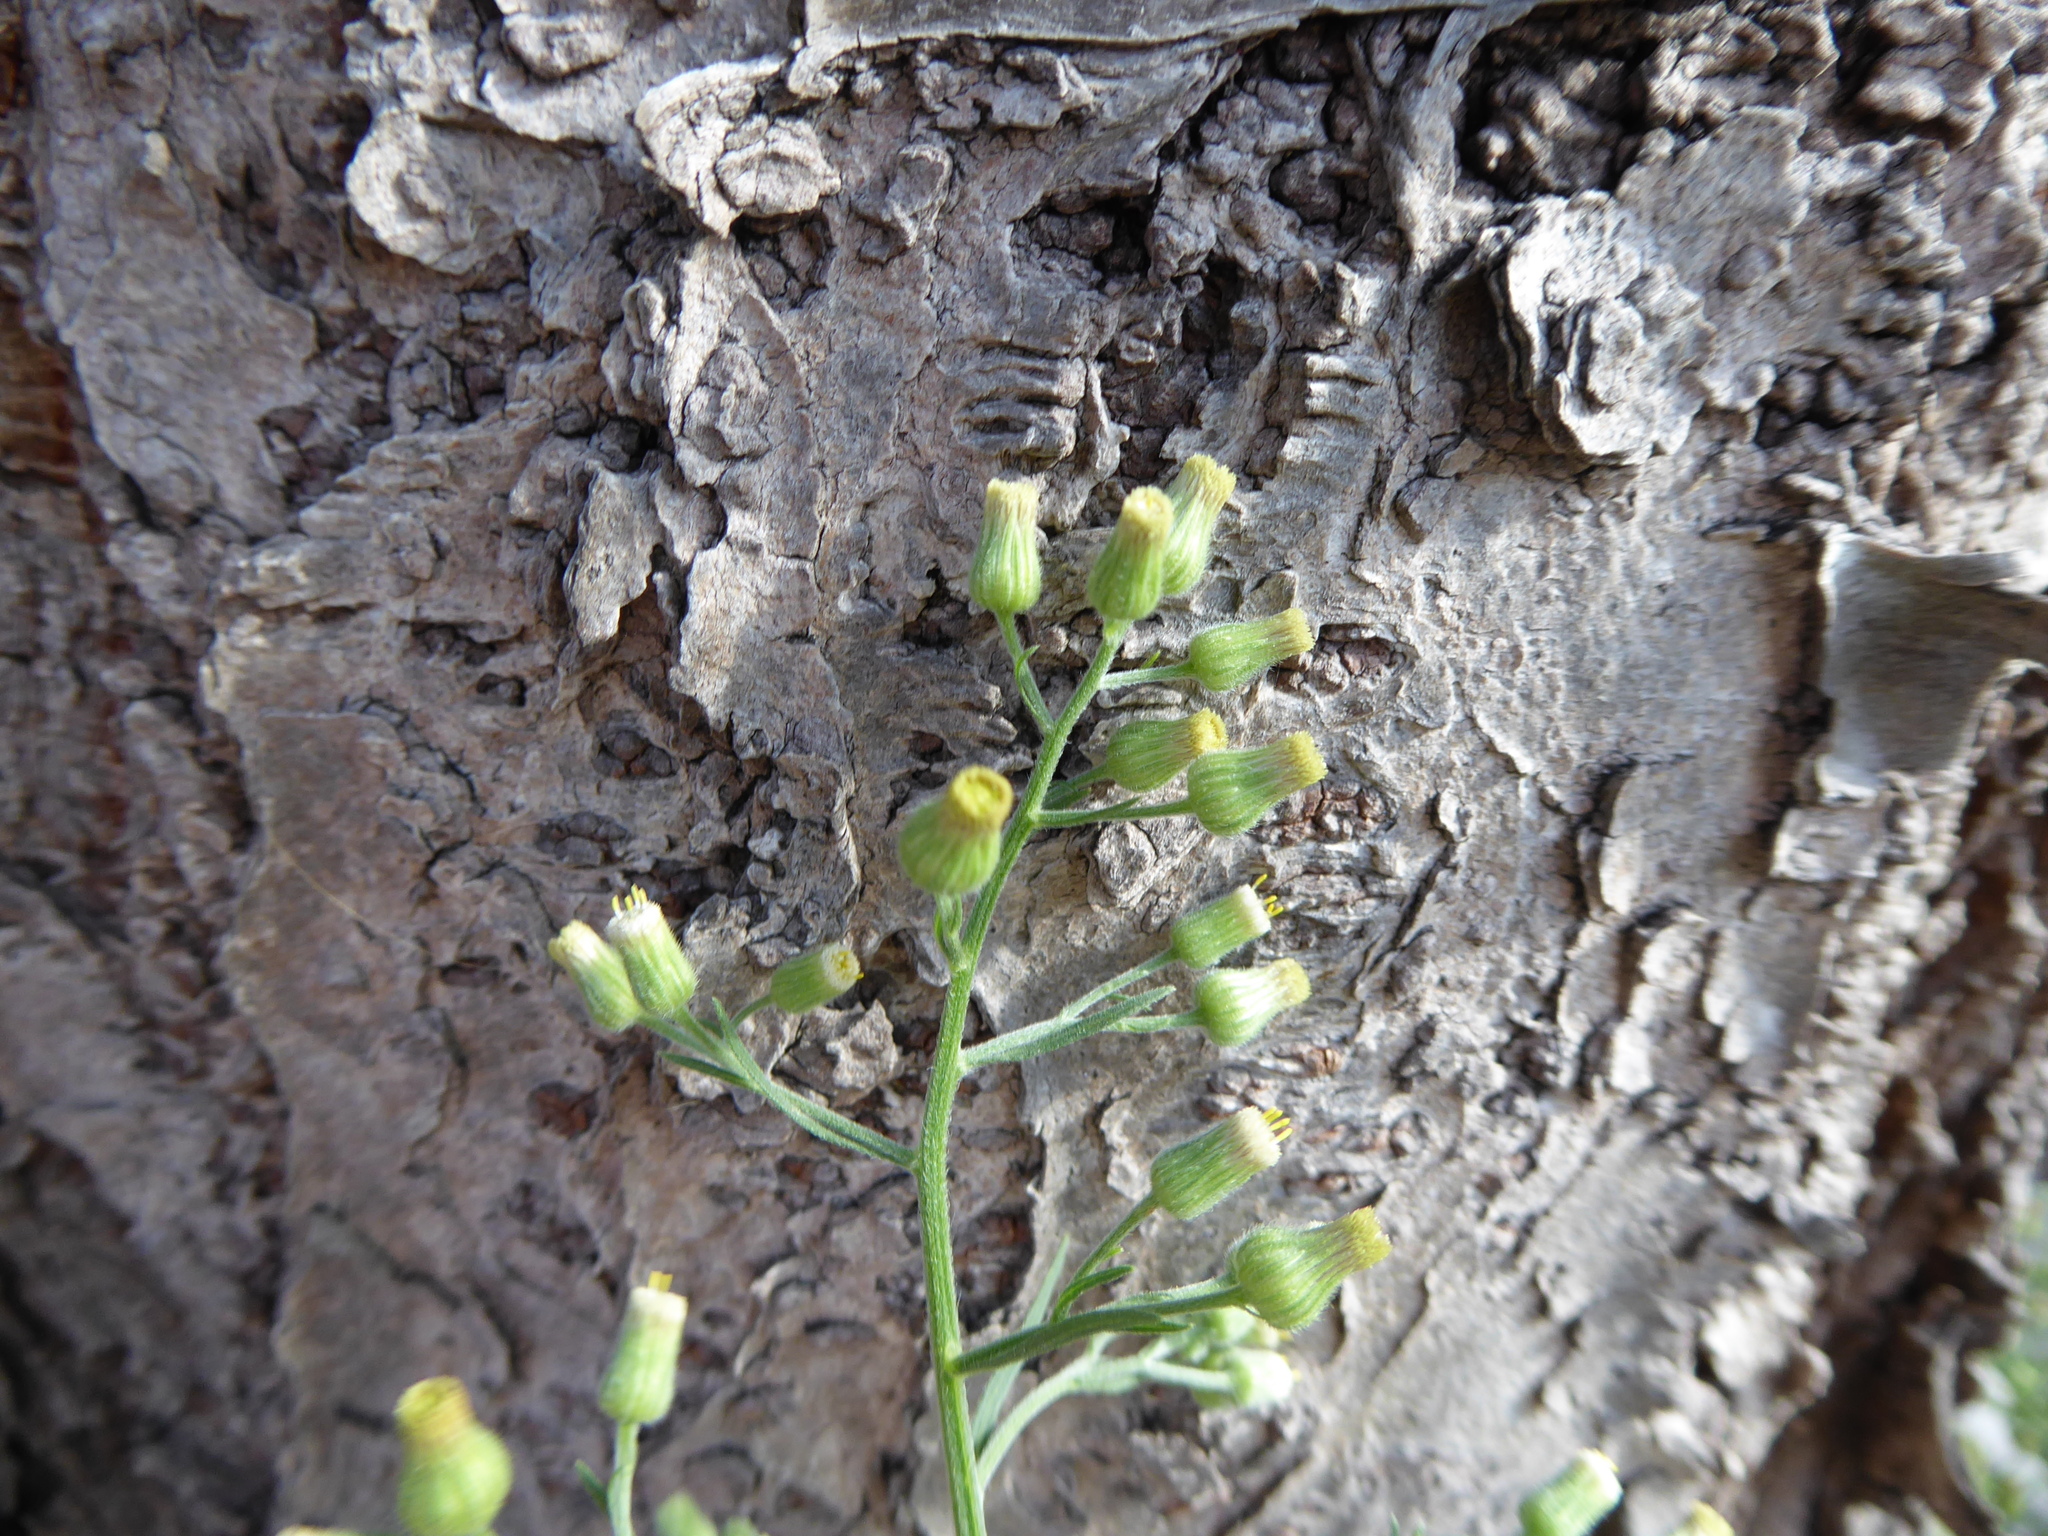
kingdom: Plantae
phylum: Tracheophyta
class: Magnoliopsida
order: Asterales
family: Asteraceae
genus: Erigeron
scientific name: Erigeron sumatrensis
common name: Daisy
